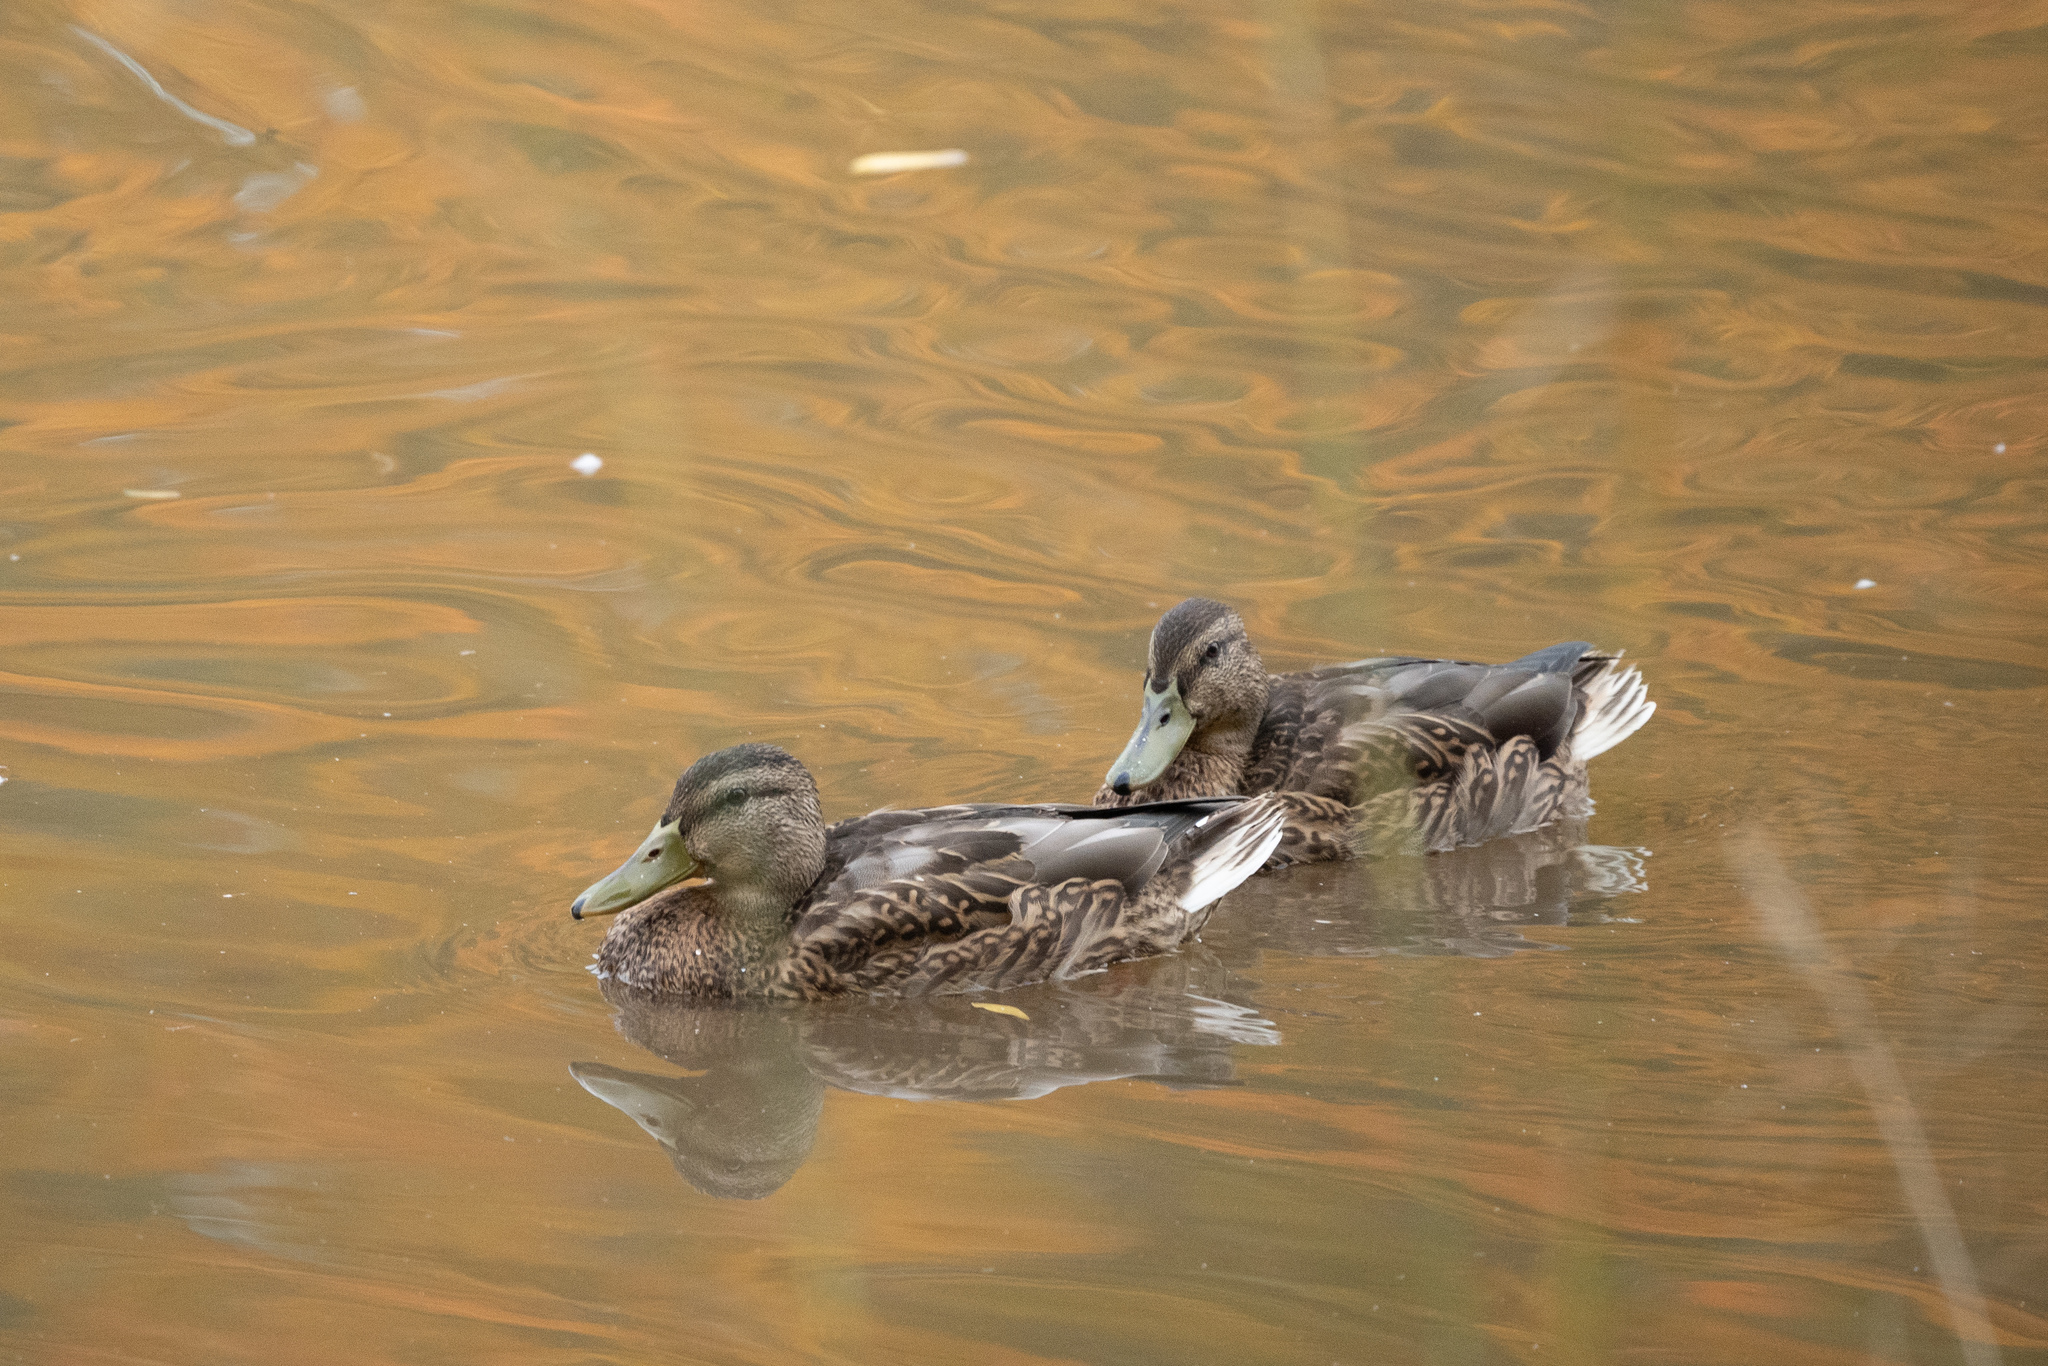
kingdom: Animalia
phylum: Chordata
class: Aves
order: Anseriformes
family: Anatidae
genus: Anas
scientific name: Anas platyrhynchos
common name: Mallard
